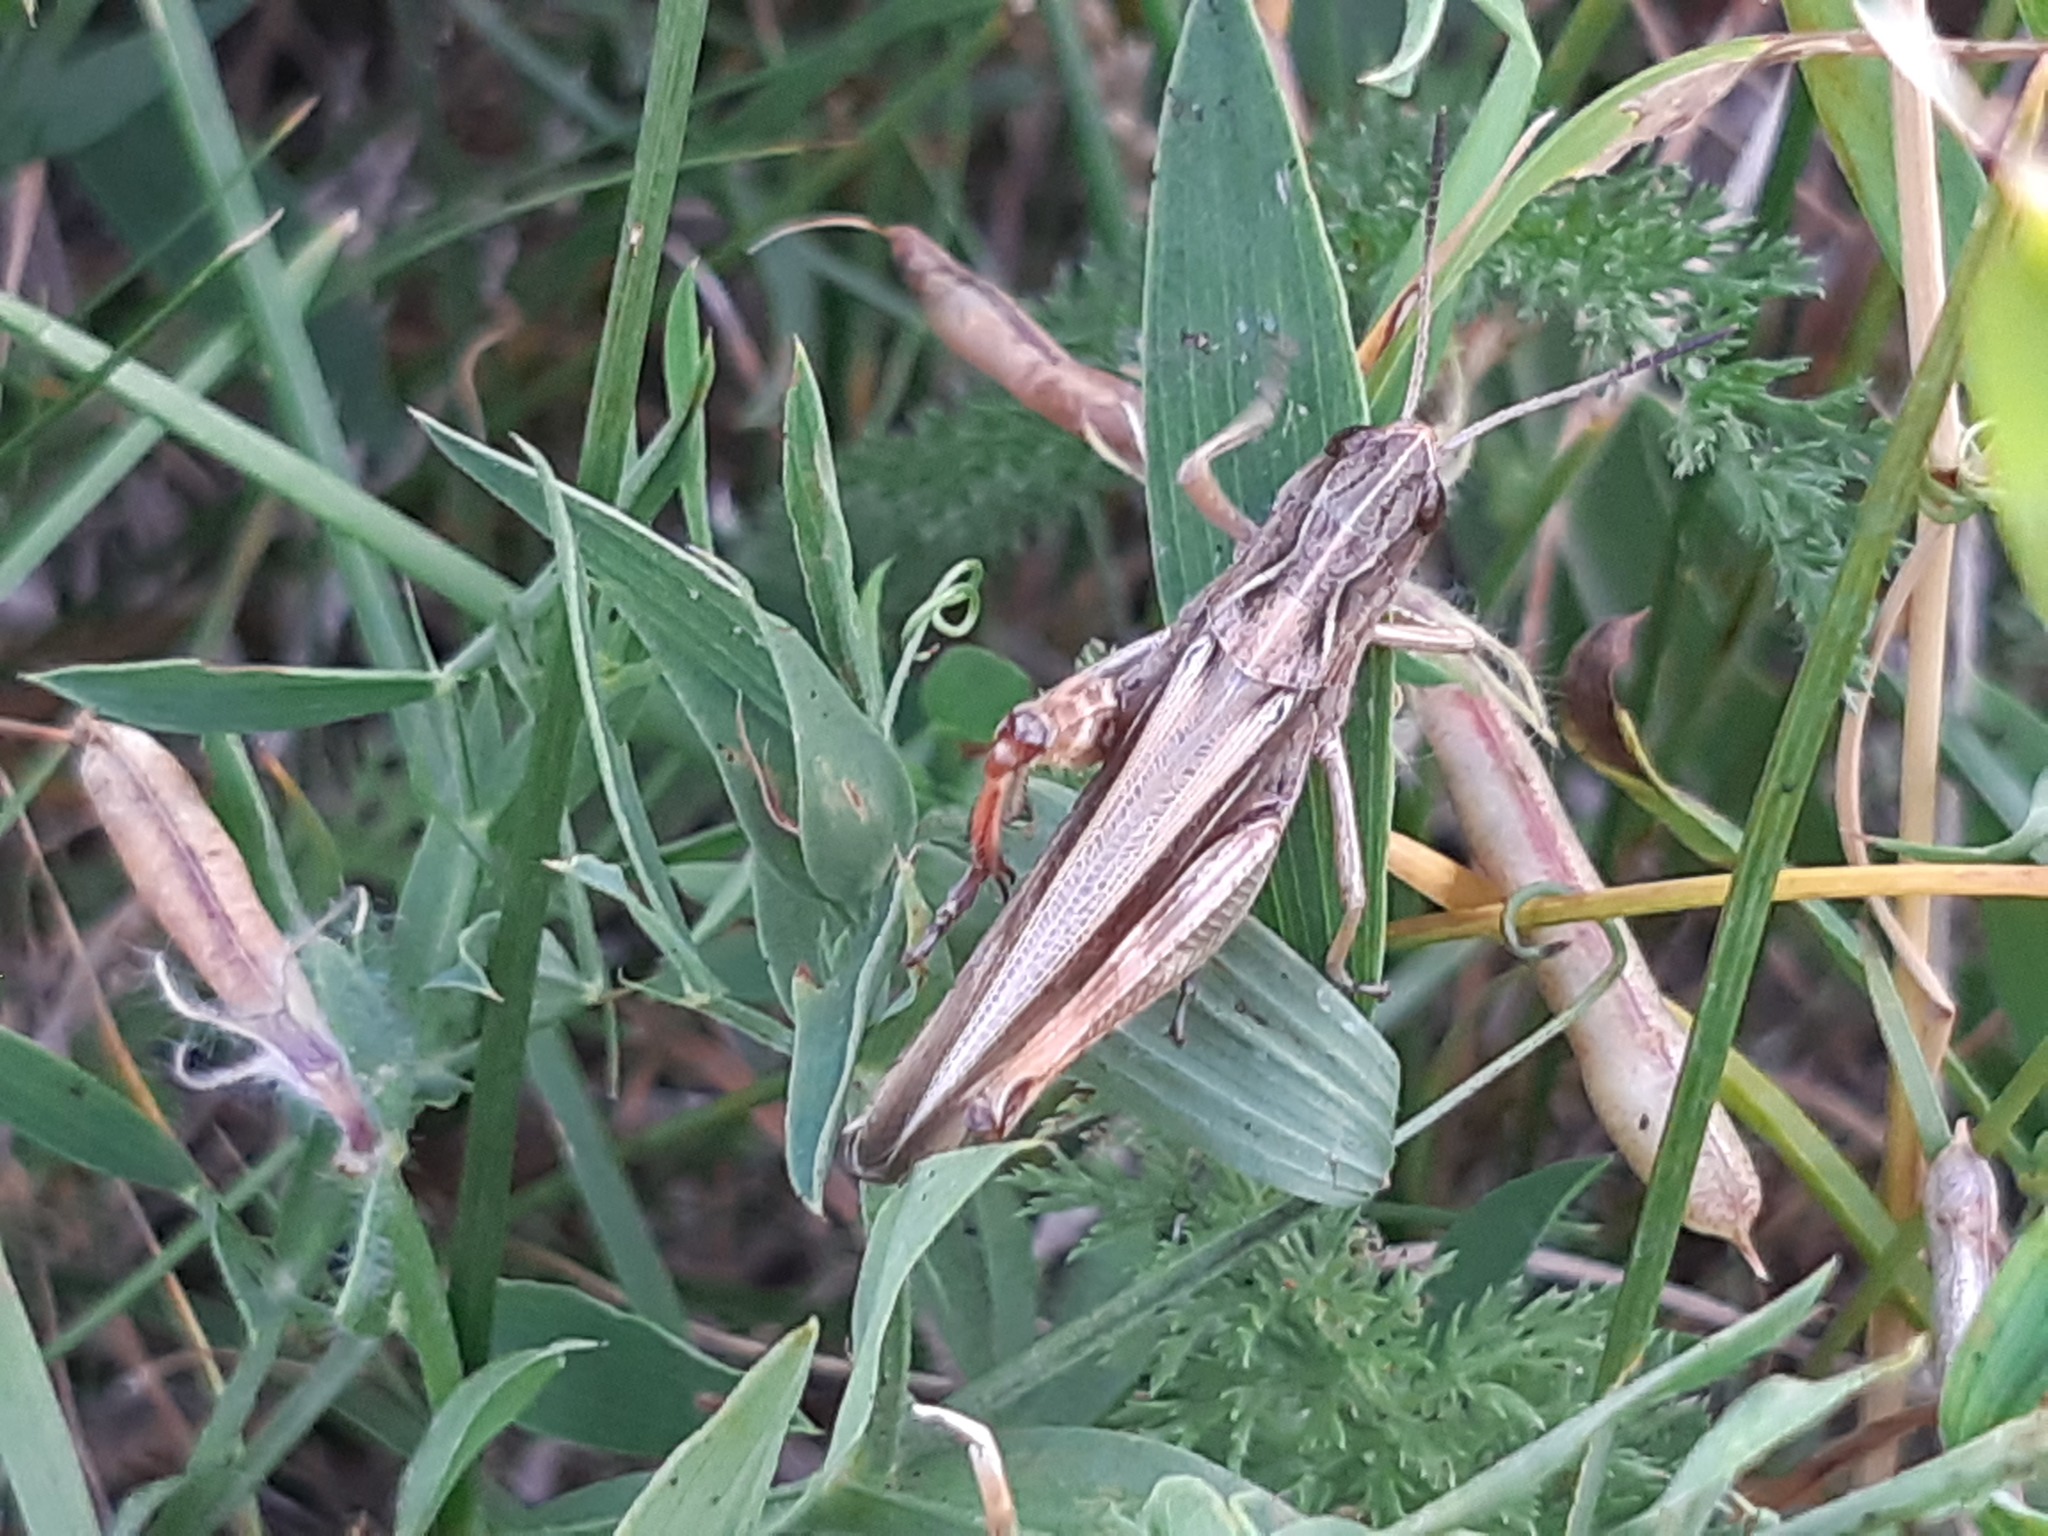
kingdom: Animalia
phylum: Arthropoda
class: Insecta
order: Orthoptera
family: Acrididae
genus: Stauroderus
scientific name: Stauroderus scalaris
